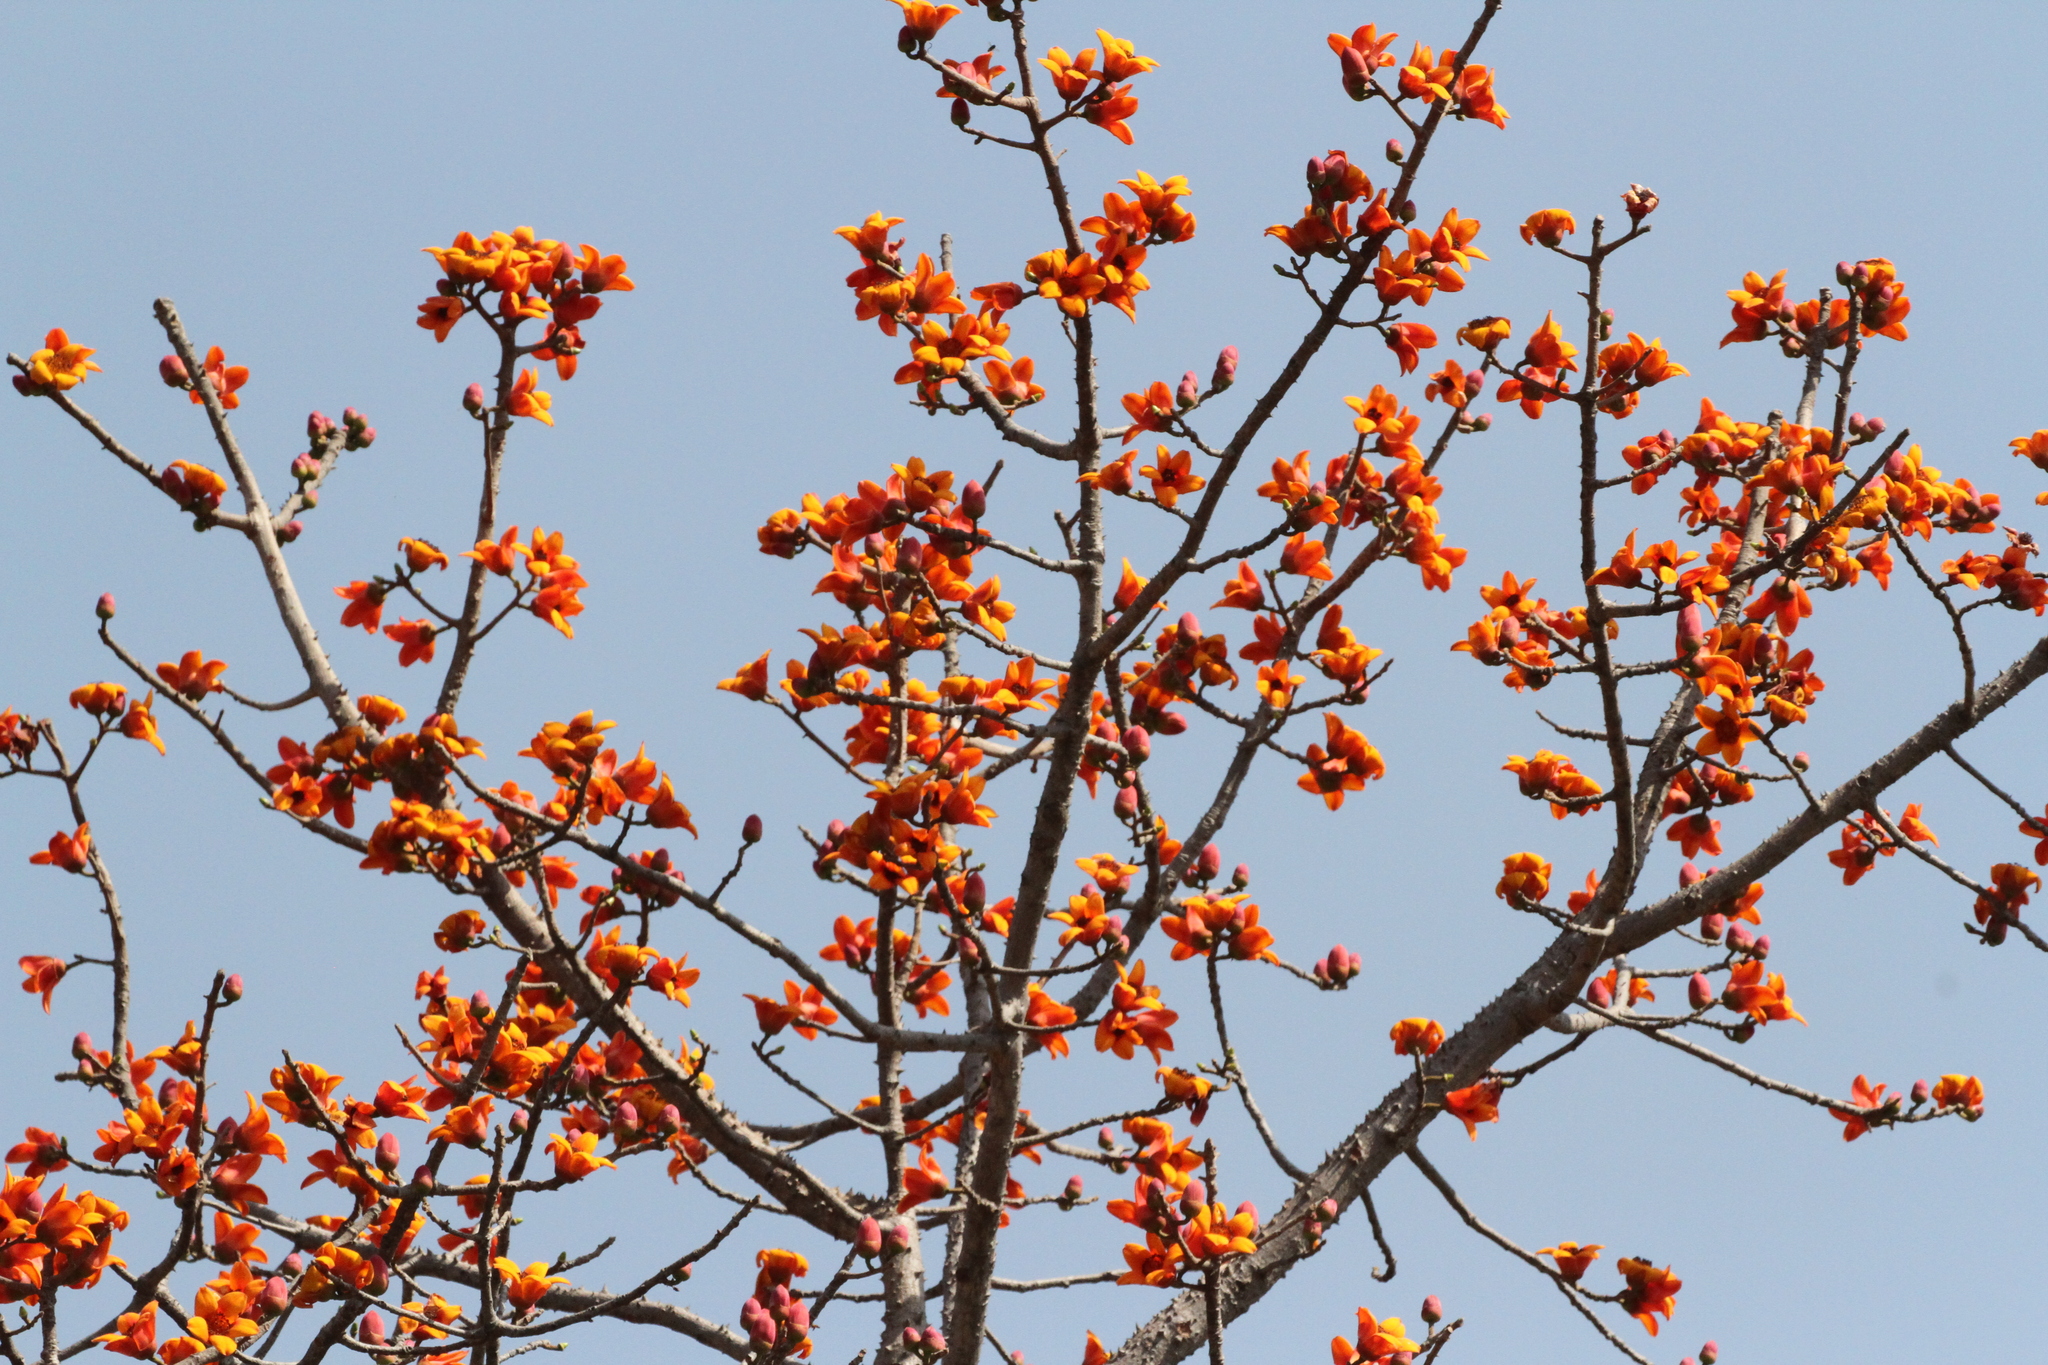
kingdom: Plantae
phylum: Tracheophyta
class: Magnoliopsida
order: Malvales
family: Malvaceae
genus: Bombax
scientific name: Bombax costatum
